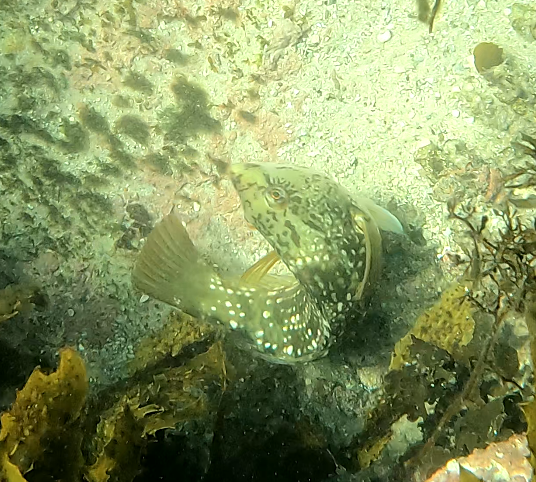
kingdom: Animalia
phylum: Chordata
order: Perciformes
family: Labridae
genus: Notolabrus
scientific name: Notolabrus gymnogenis
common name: Crimson banded wrasse
